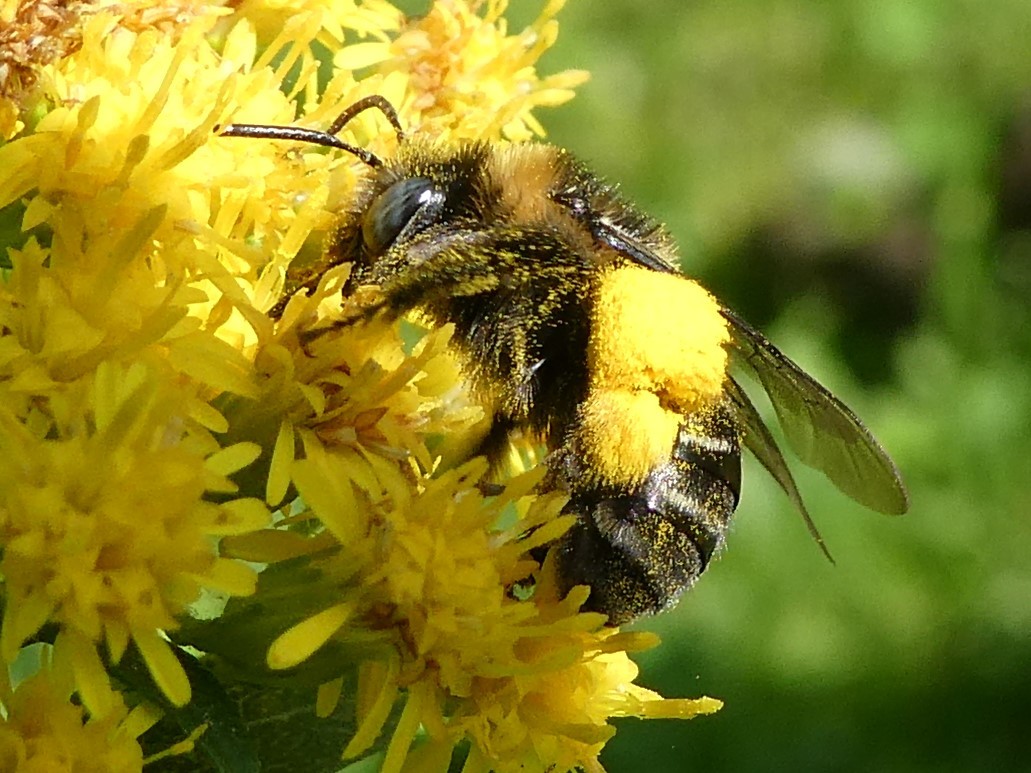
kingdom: Animalia
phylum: Arthropoda
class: Insecta
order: Hymenoptera
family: Apidae
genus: Melissodes
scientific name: Melissodes druriellus
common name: Drury's long-horned bee
